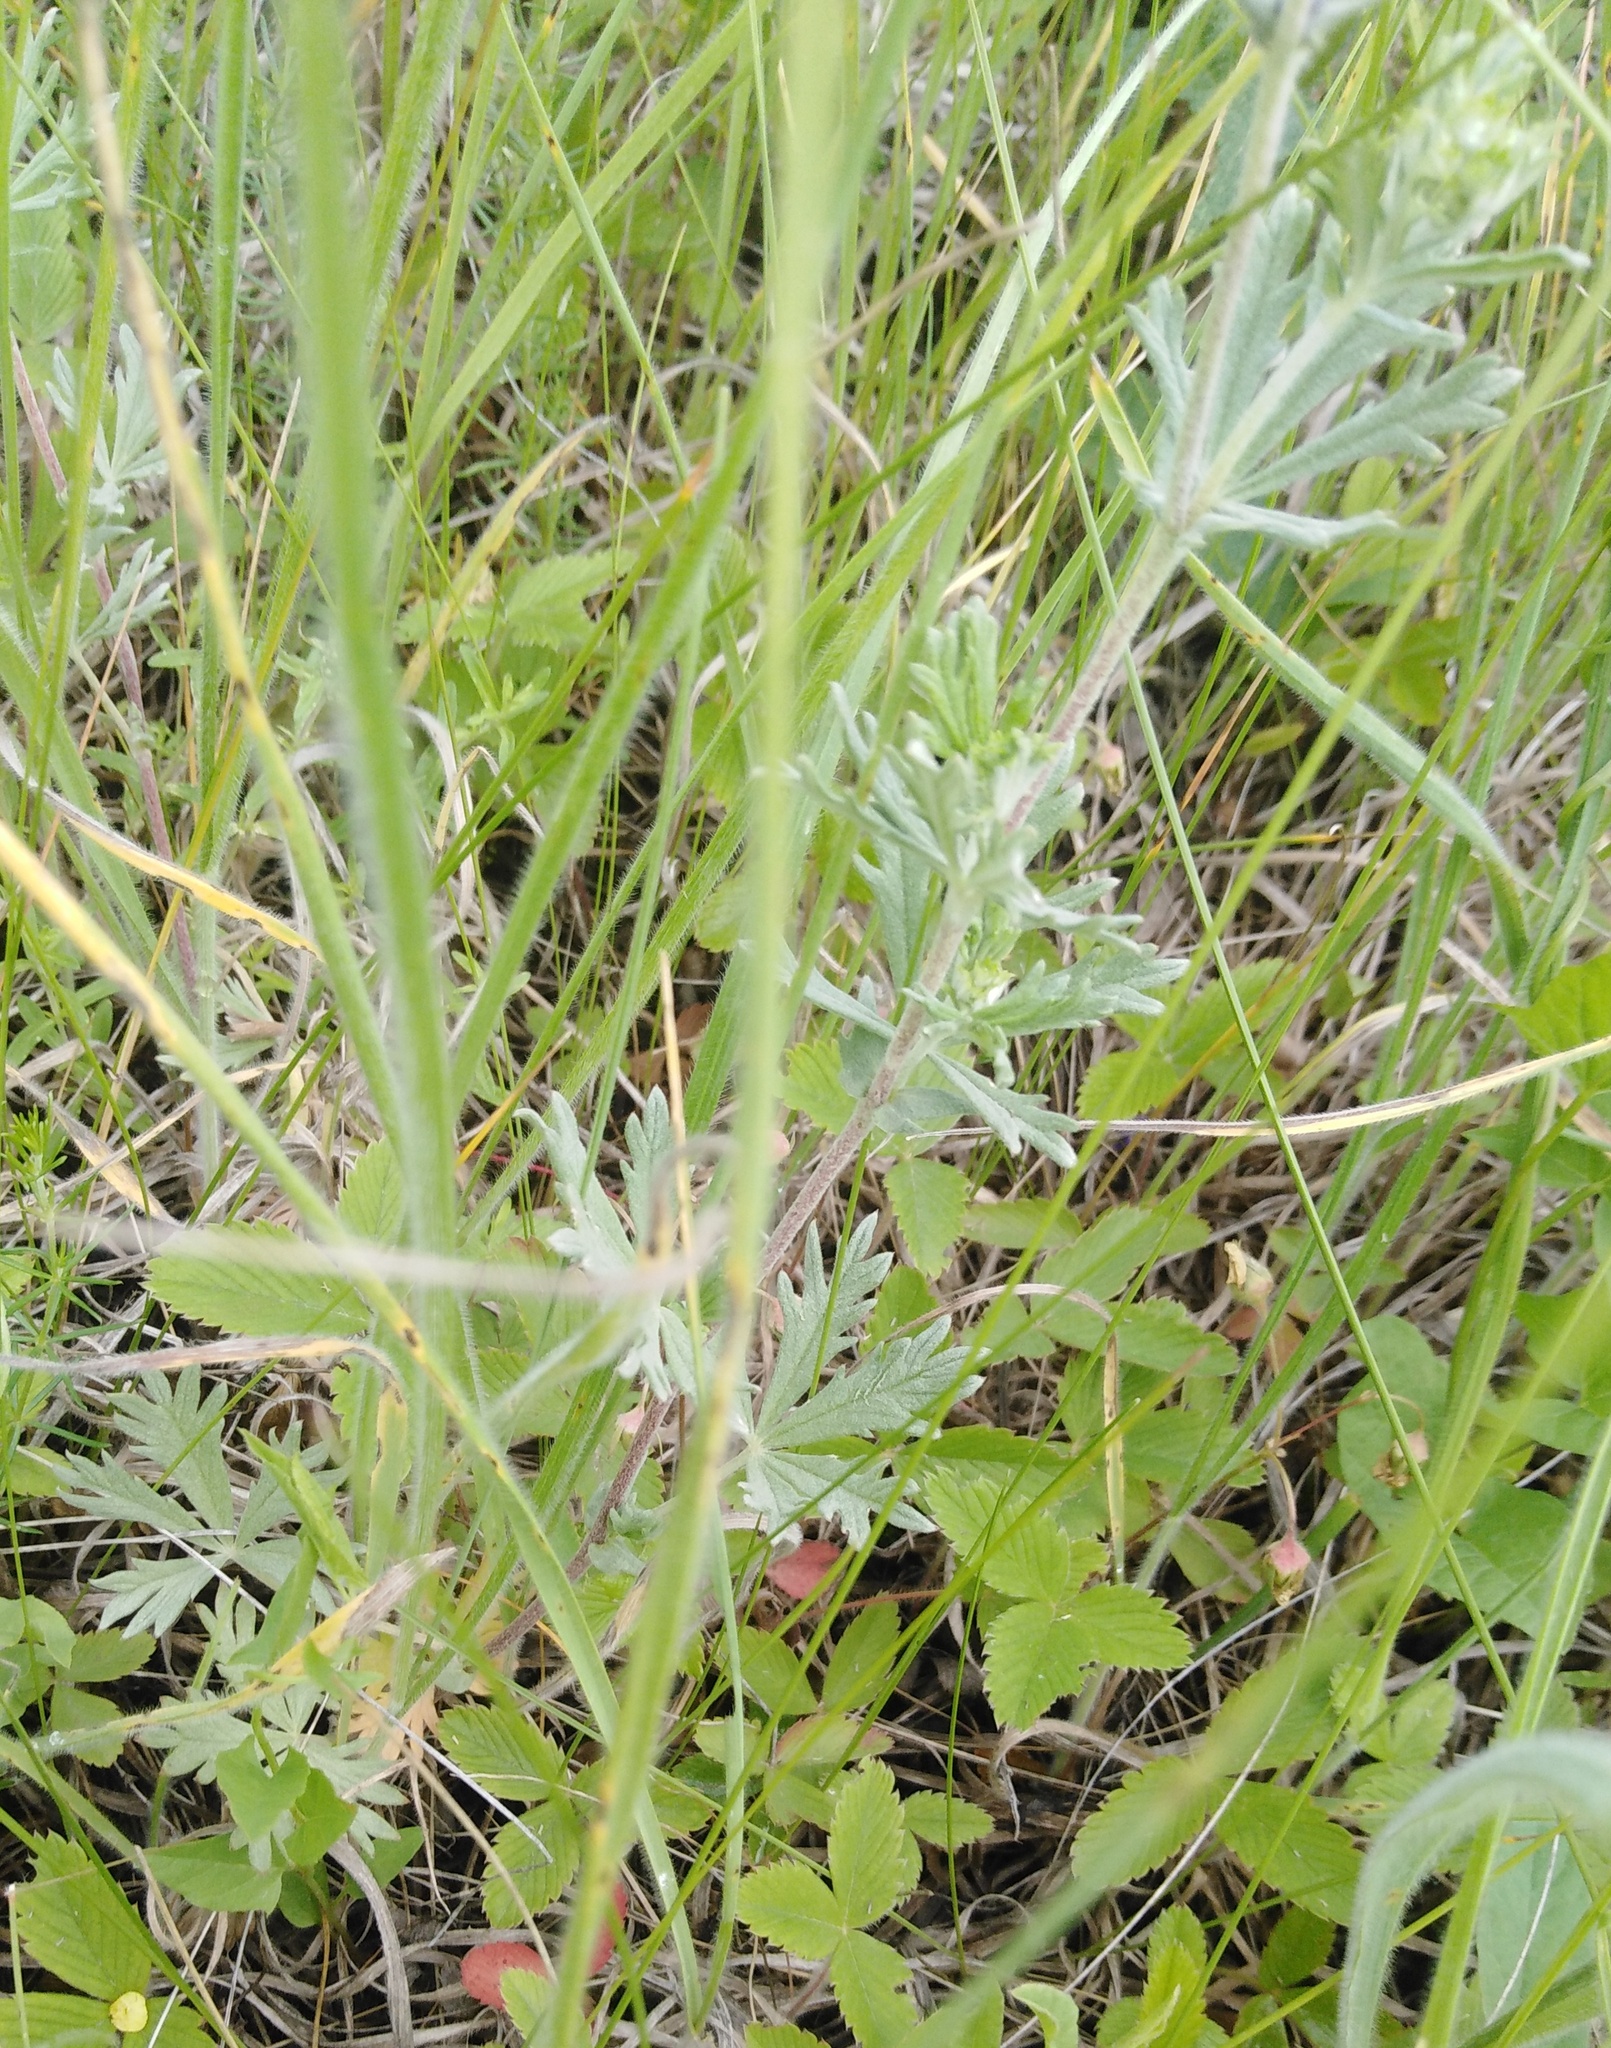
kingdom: Plantae
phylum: Tracheophyta
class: Magnoliopsida
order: Rosales
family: Rosaceae
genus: Potentilla
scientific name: Potentilla argentea
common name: Hoary cinquefoil
